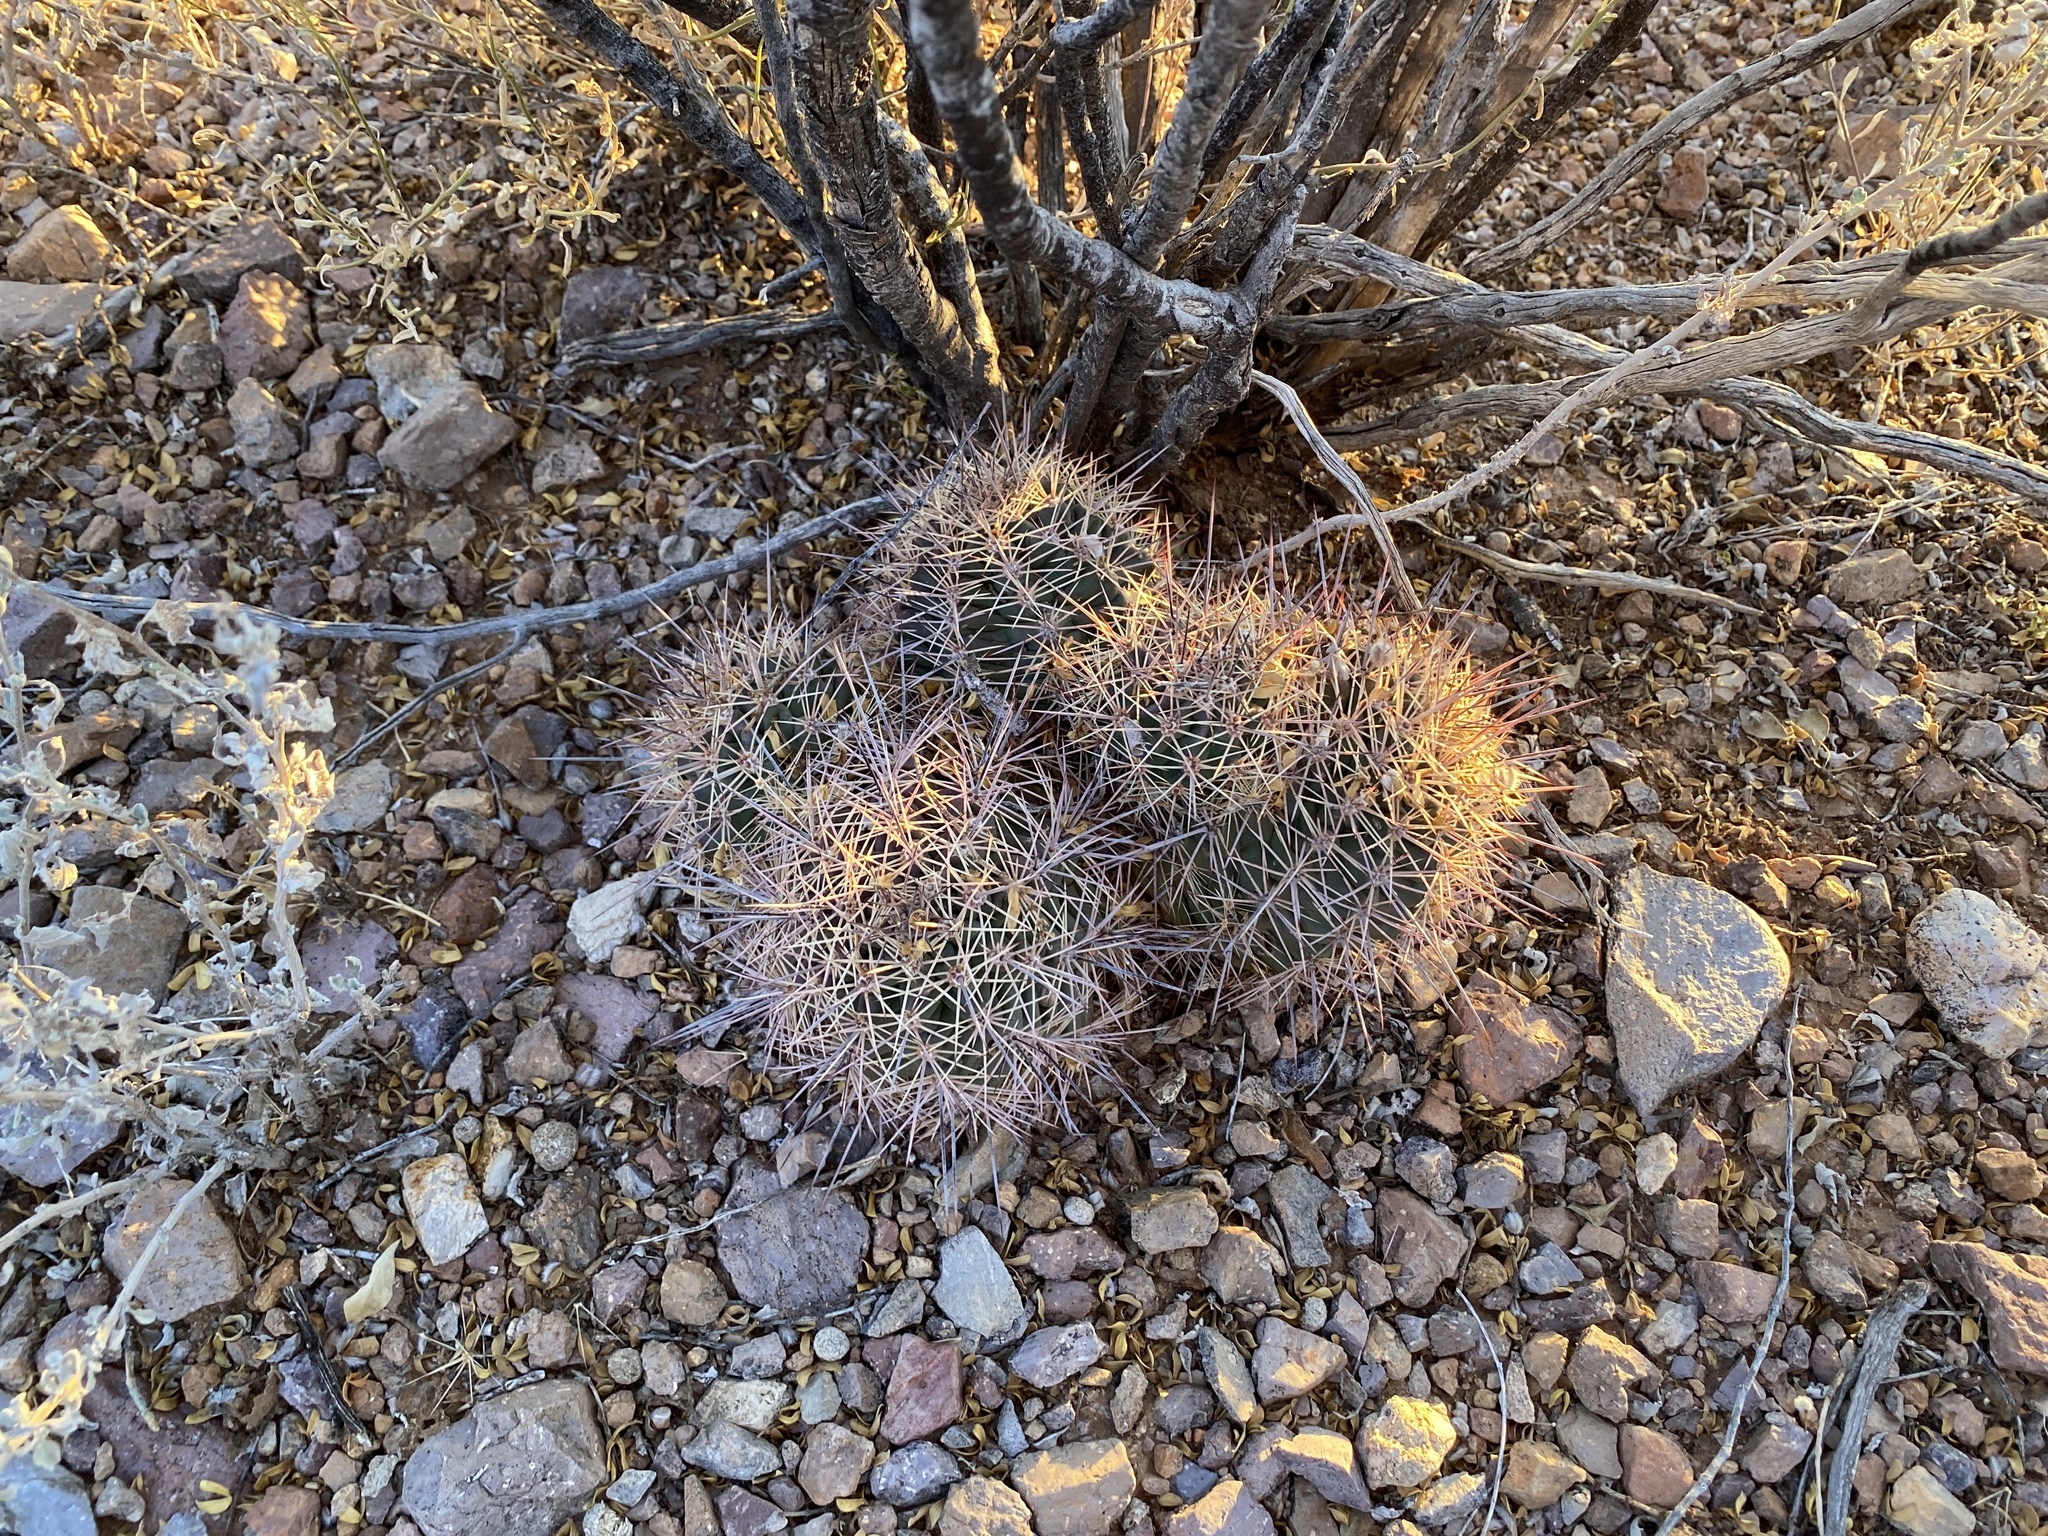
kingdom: Plantae
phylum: Tracheophyta
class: Magnoliopsida
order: Caryophyllales
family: Cactaceae
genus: Echinocereus
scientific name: Echinocereus coccineus
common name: Scarlet hedgehog cactus
